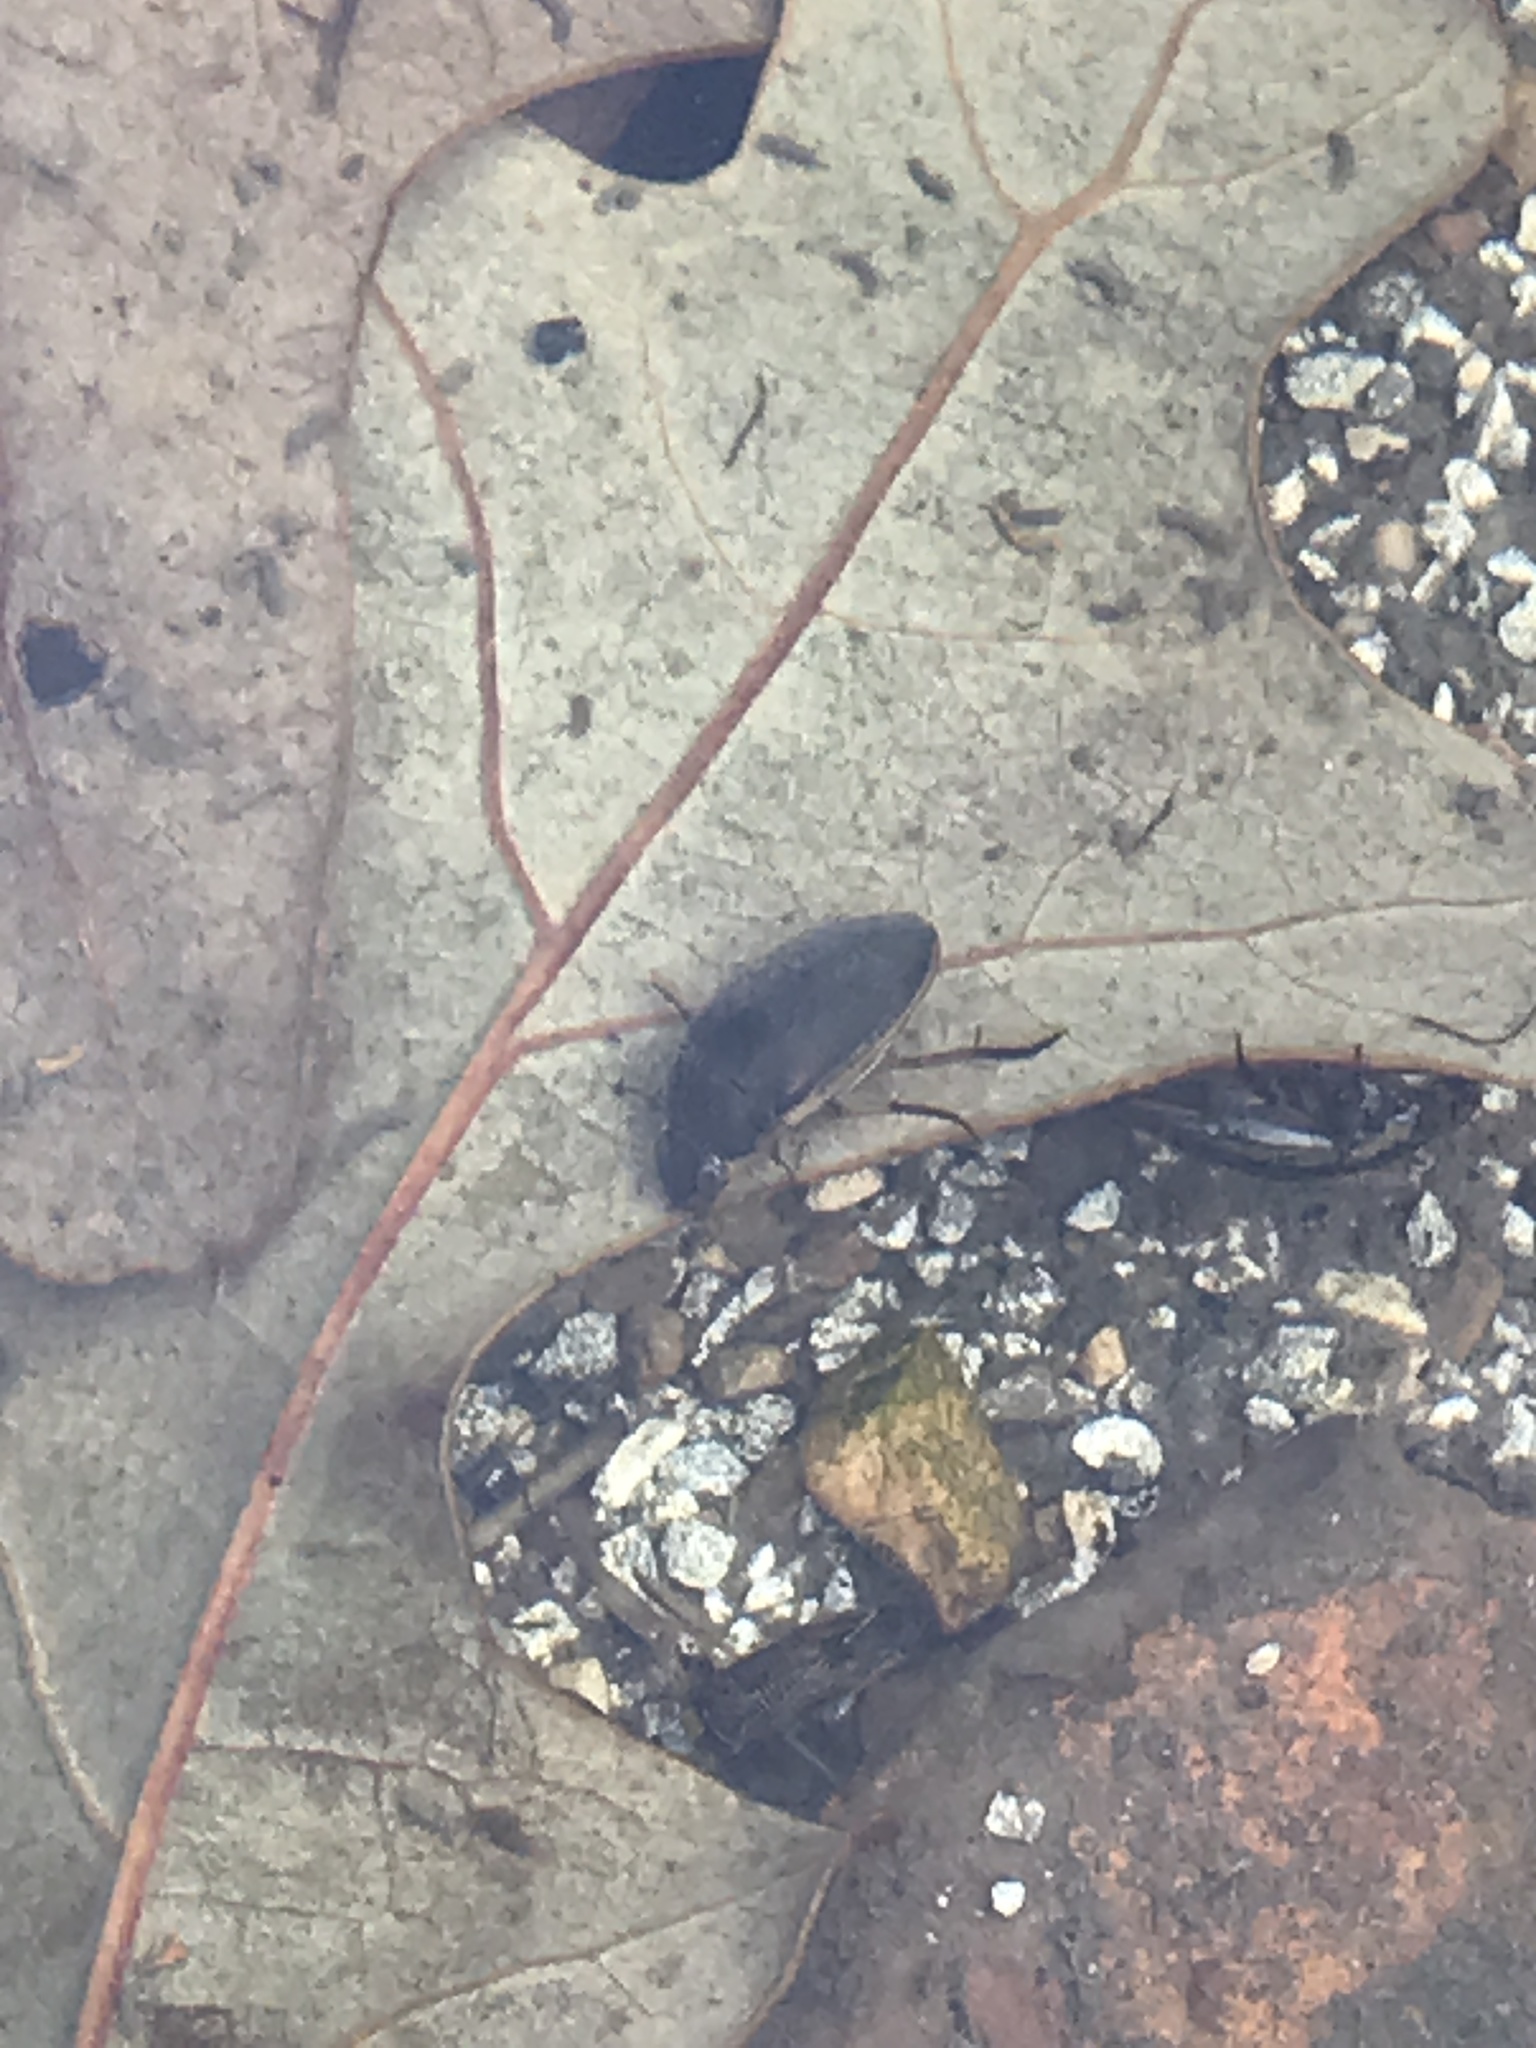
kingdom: Animalia
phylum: Arthropoda
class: Insecta
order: Coleoptera
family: Hydrophilidae
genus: Tropisternus
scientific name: Tropisternus lateralis
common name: Lateral-banded water scavenger beetle
